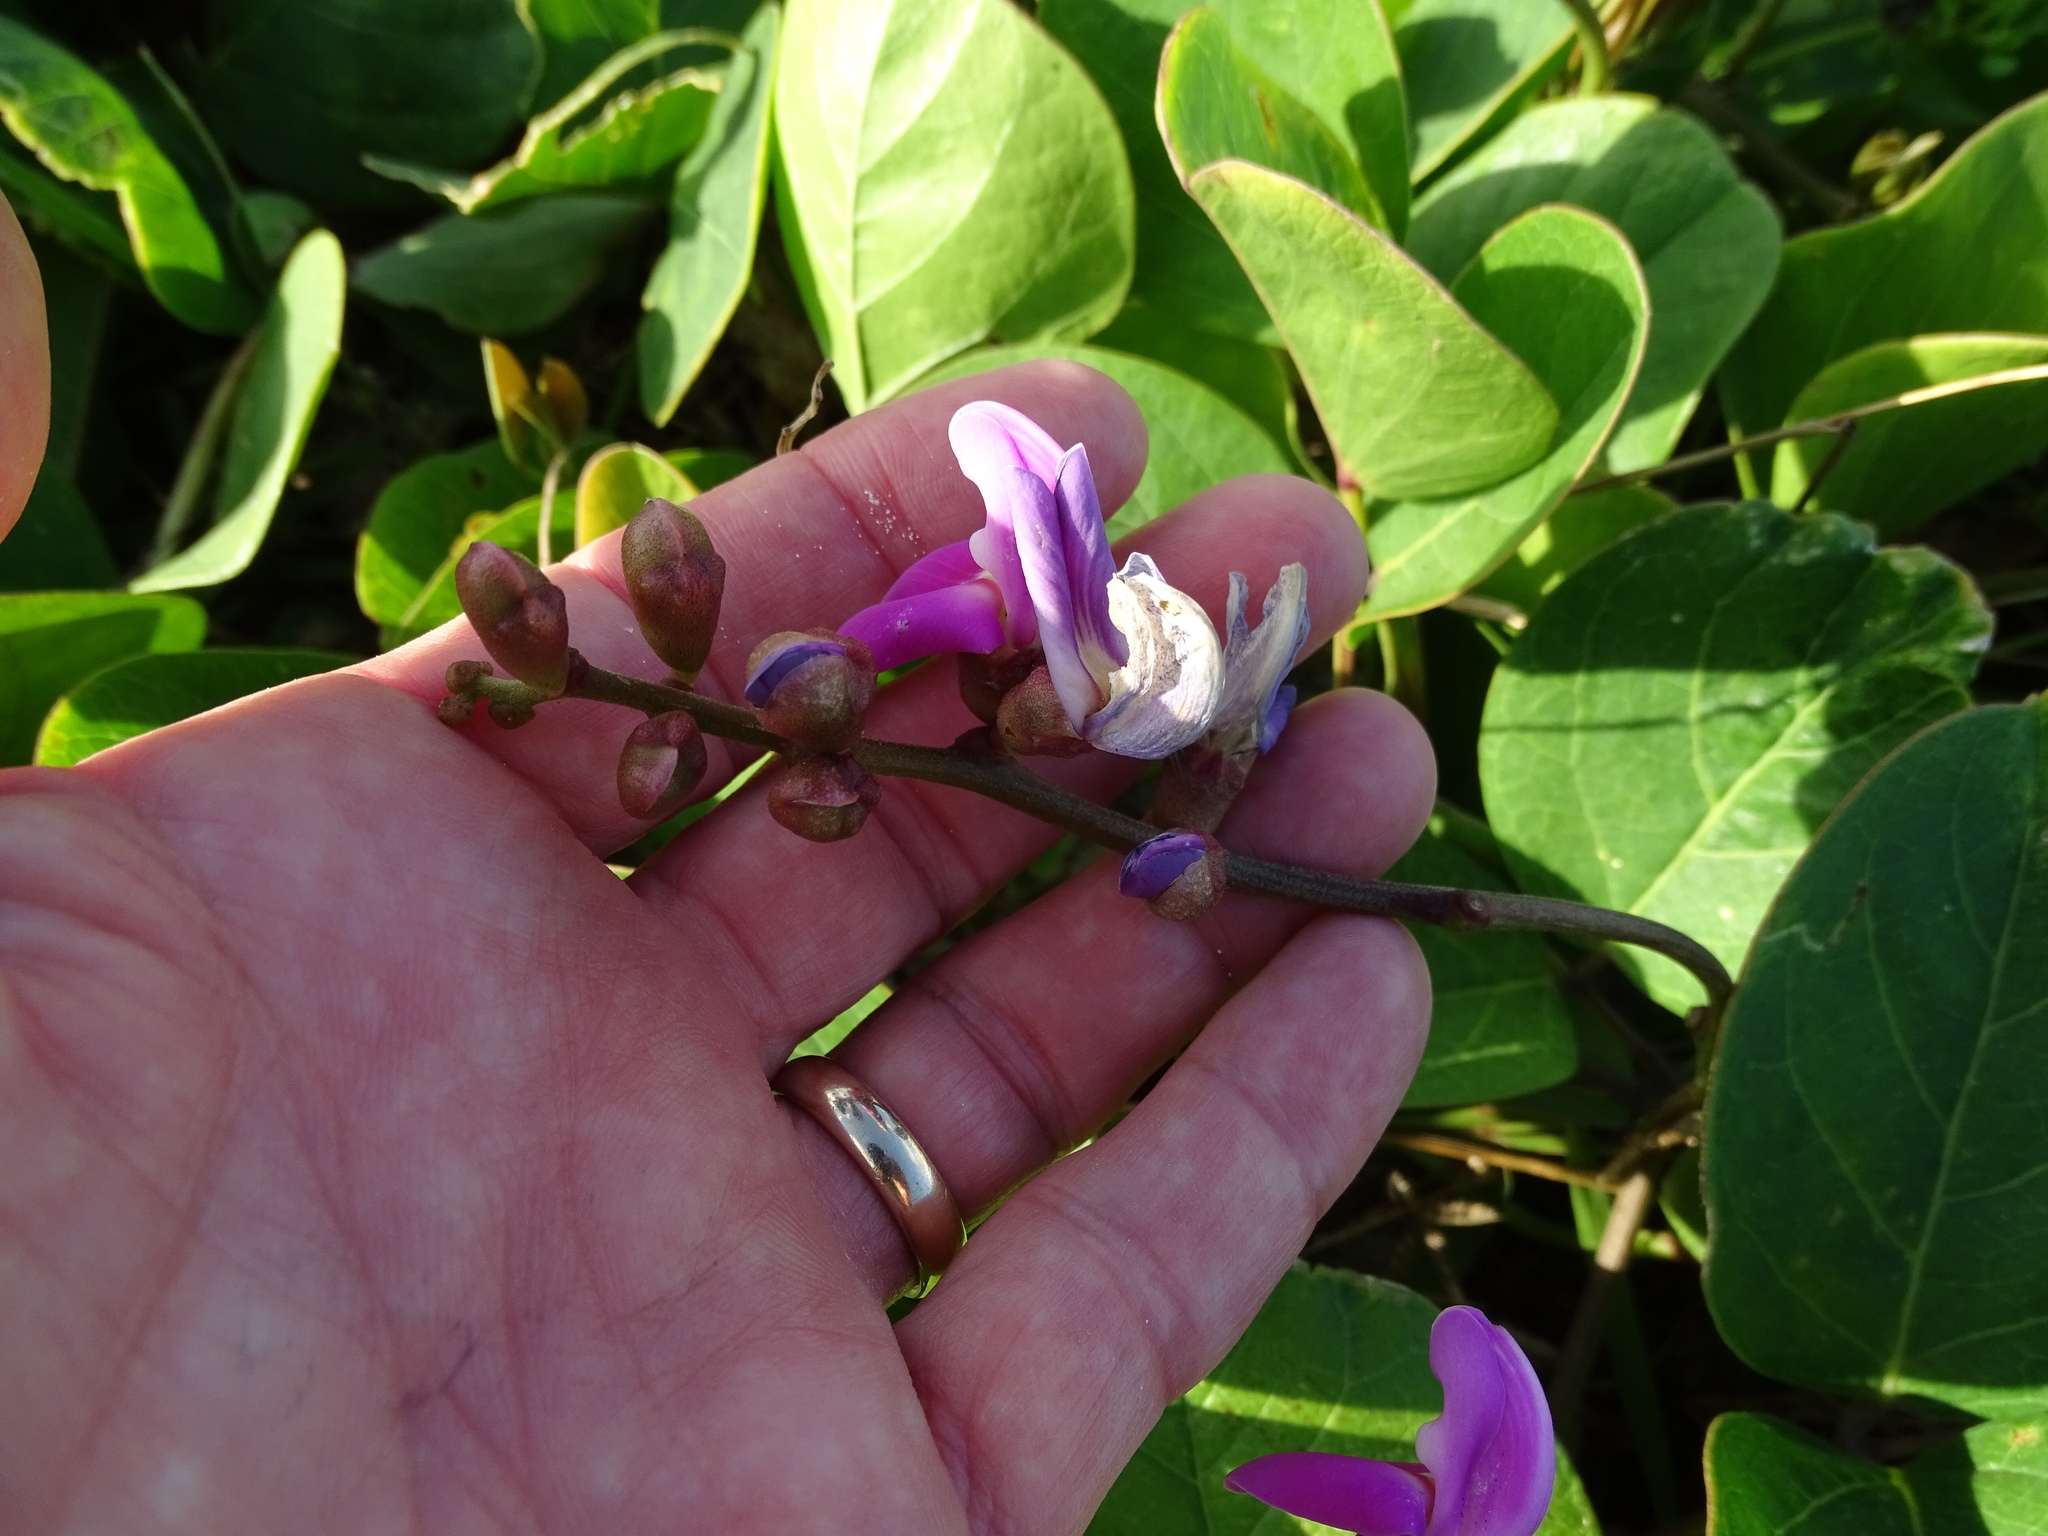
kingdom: Plantae
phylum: Tracheophyta
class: Magnoliopsida
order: Fabales
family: Fabaceae
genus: Canavalia
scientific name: Canavalia rosea
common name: Beach-bean
